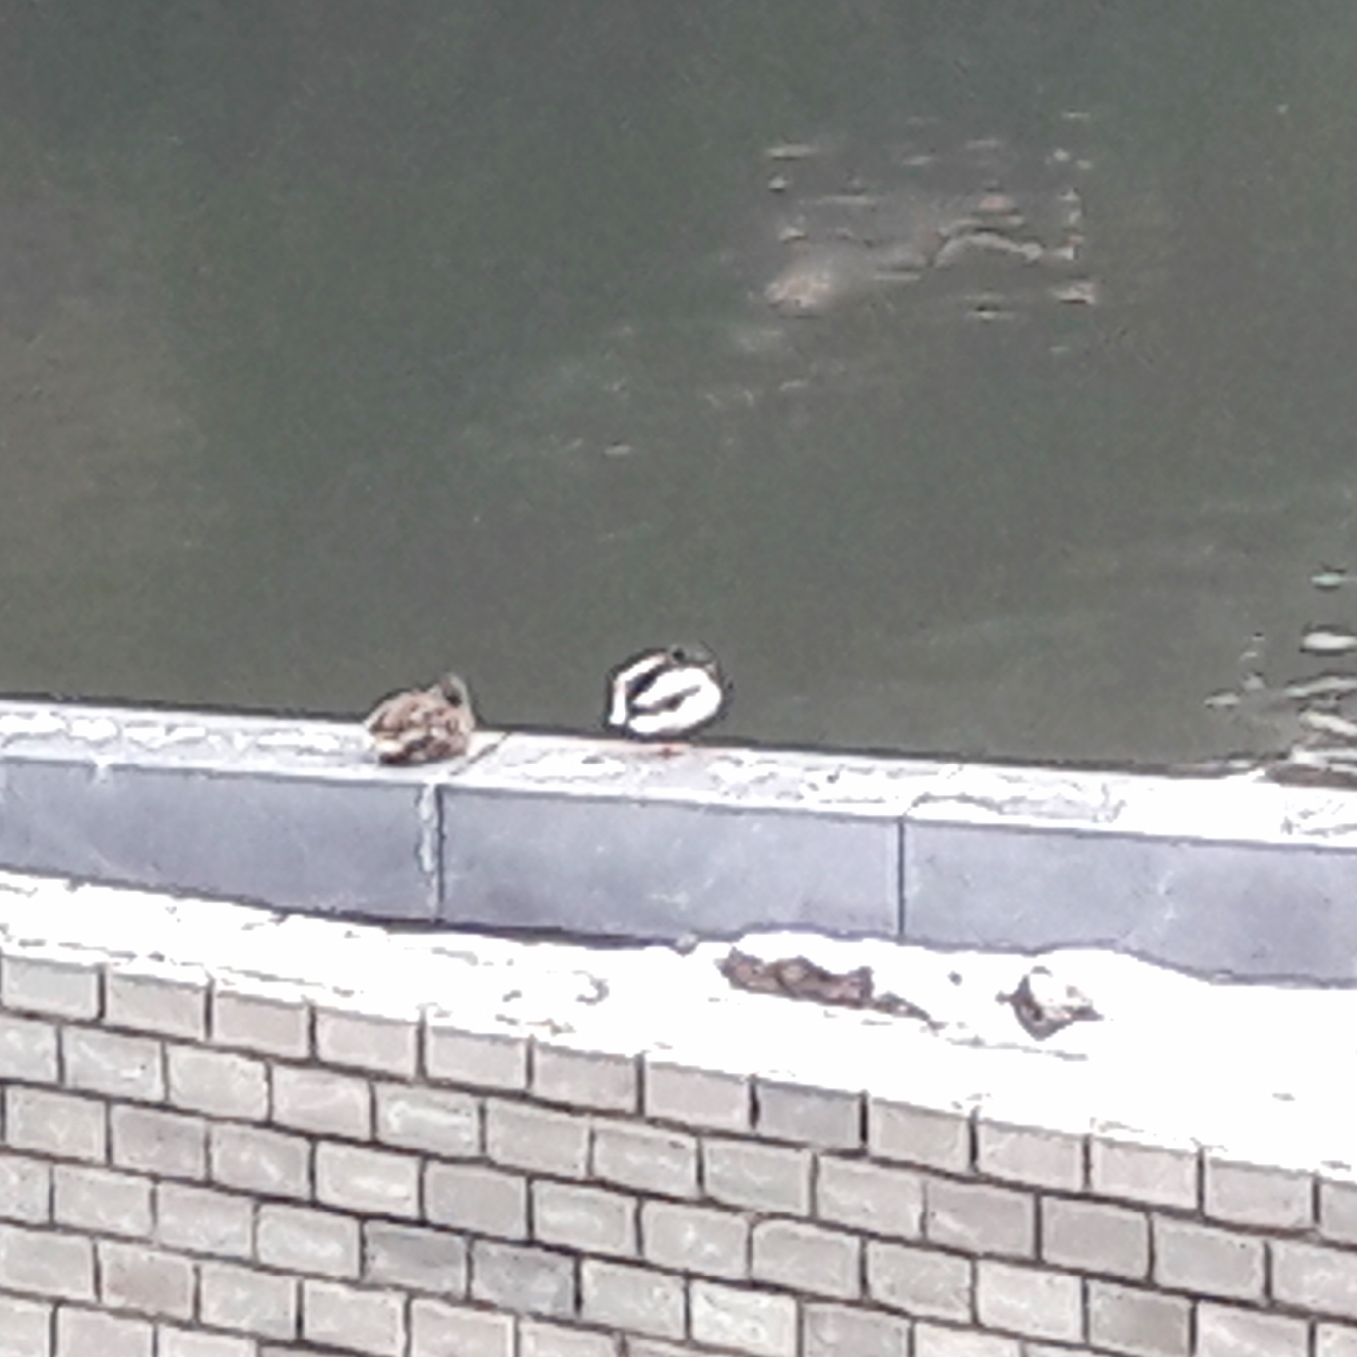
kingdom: Animalia
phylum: Chordata
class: Aves
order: Anseriformes
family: Anatidae
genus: Anas
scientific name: Anas platyrhynchos
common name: Mallard
